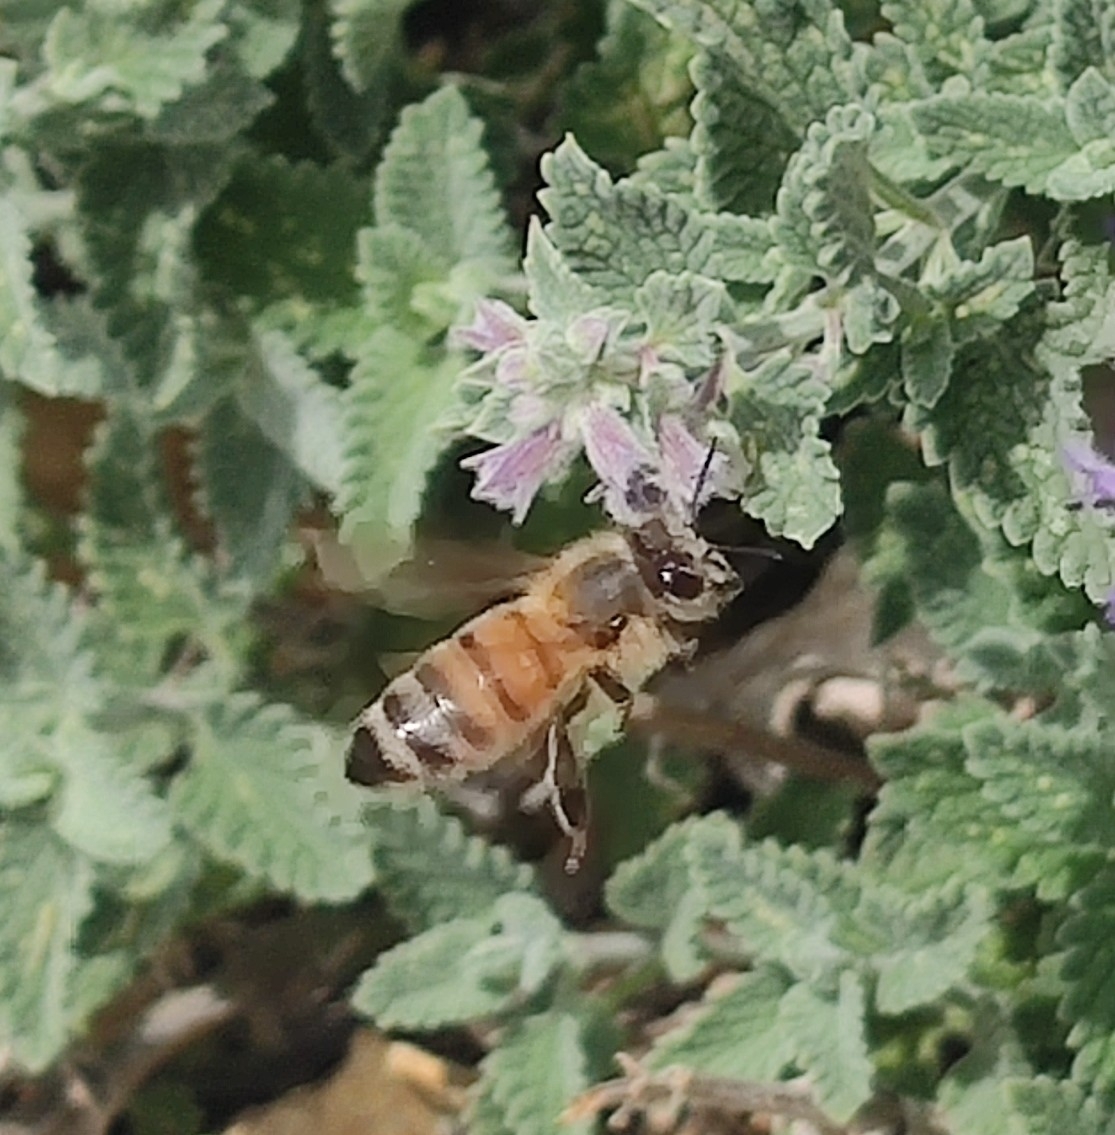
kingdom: Animalia
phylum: Arthropoda
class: Insecta
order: Hymenoptera
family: Apidae
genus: Apis
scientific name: Apis mellifera
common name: Honey bee
